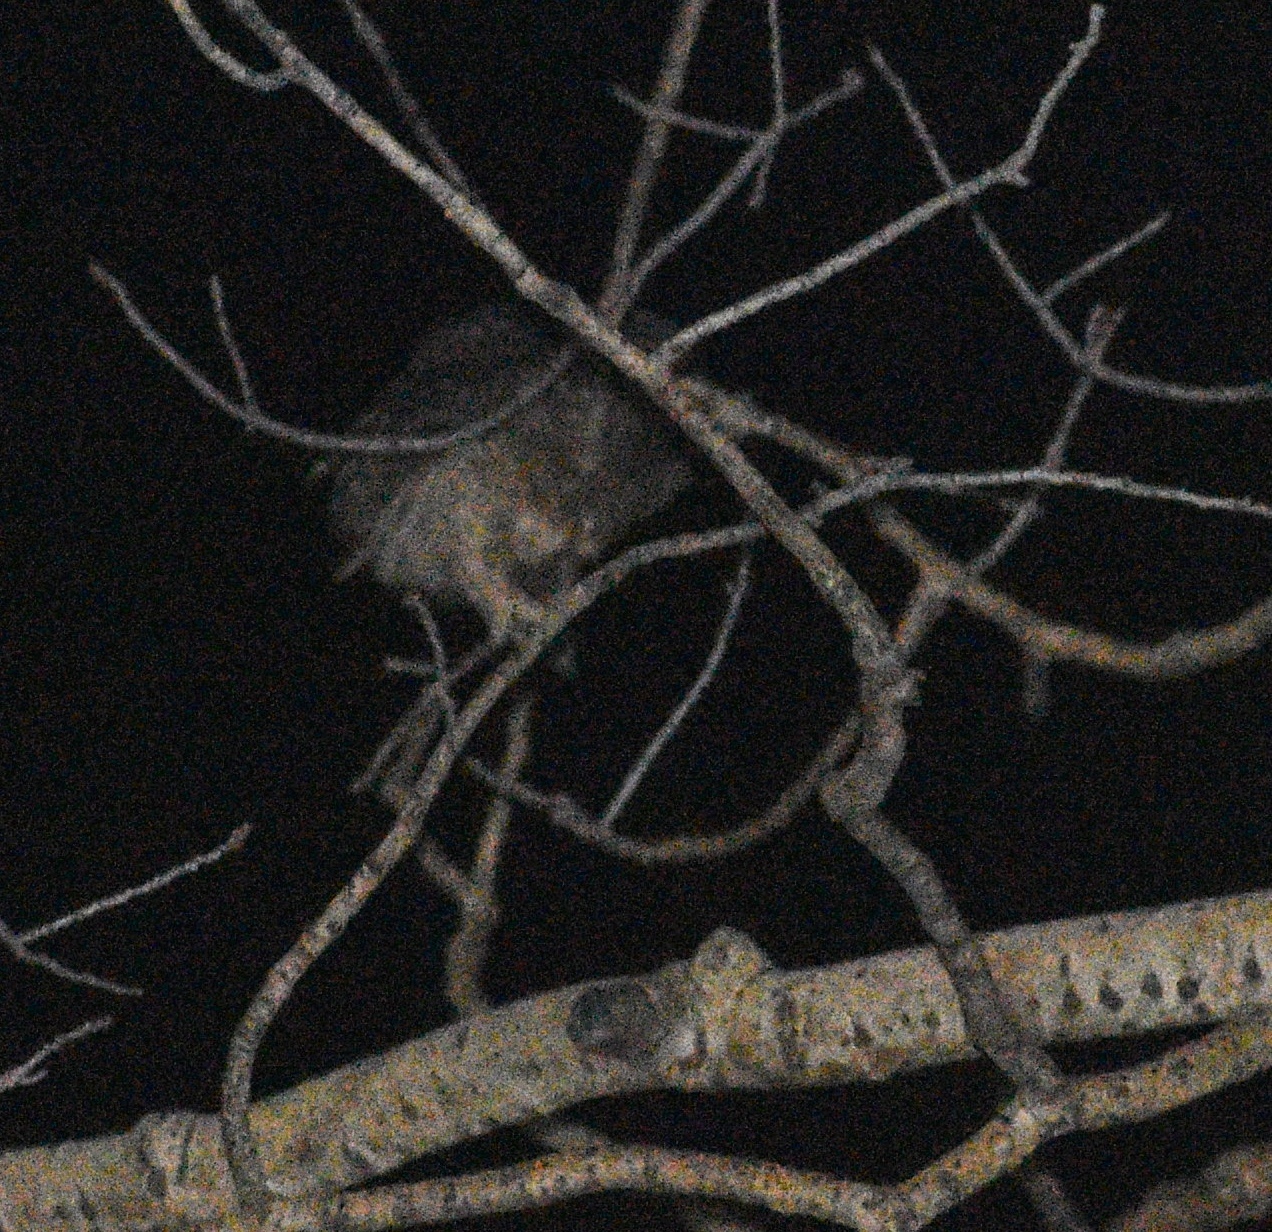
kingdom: Animalia
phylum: Chordata
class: Aves
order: Strigiformes
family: Strigidae
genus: Aegolius
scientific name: Aegolius funereus
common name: Boreal owl
